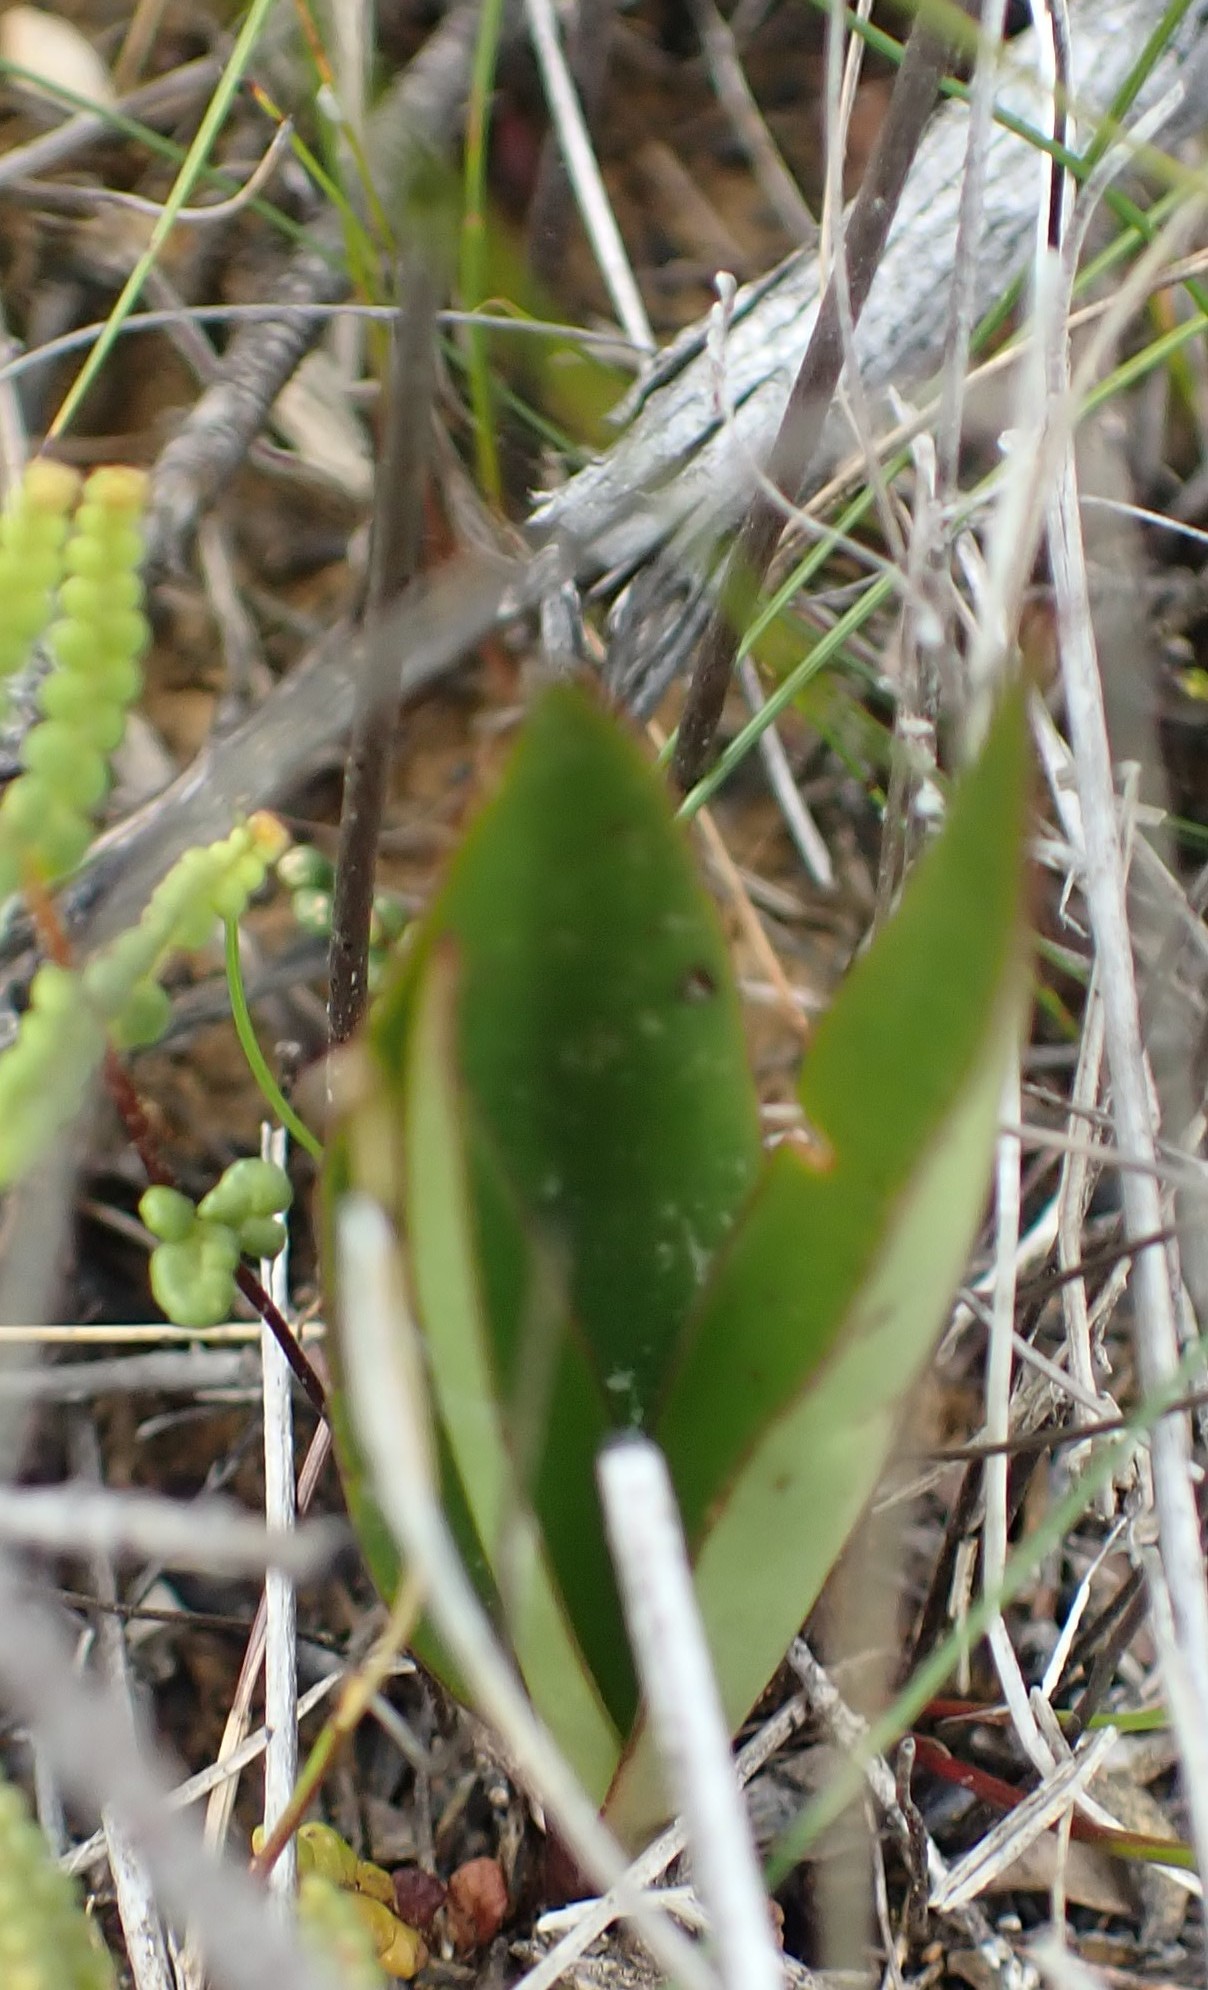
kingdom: Plantae
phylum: Tracheophyta
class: Liliopsida
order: Asparagales
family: Orchidaceae
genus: Cryptostylis
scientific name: Cryptostylis subulata
